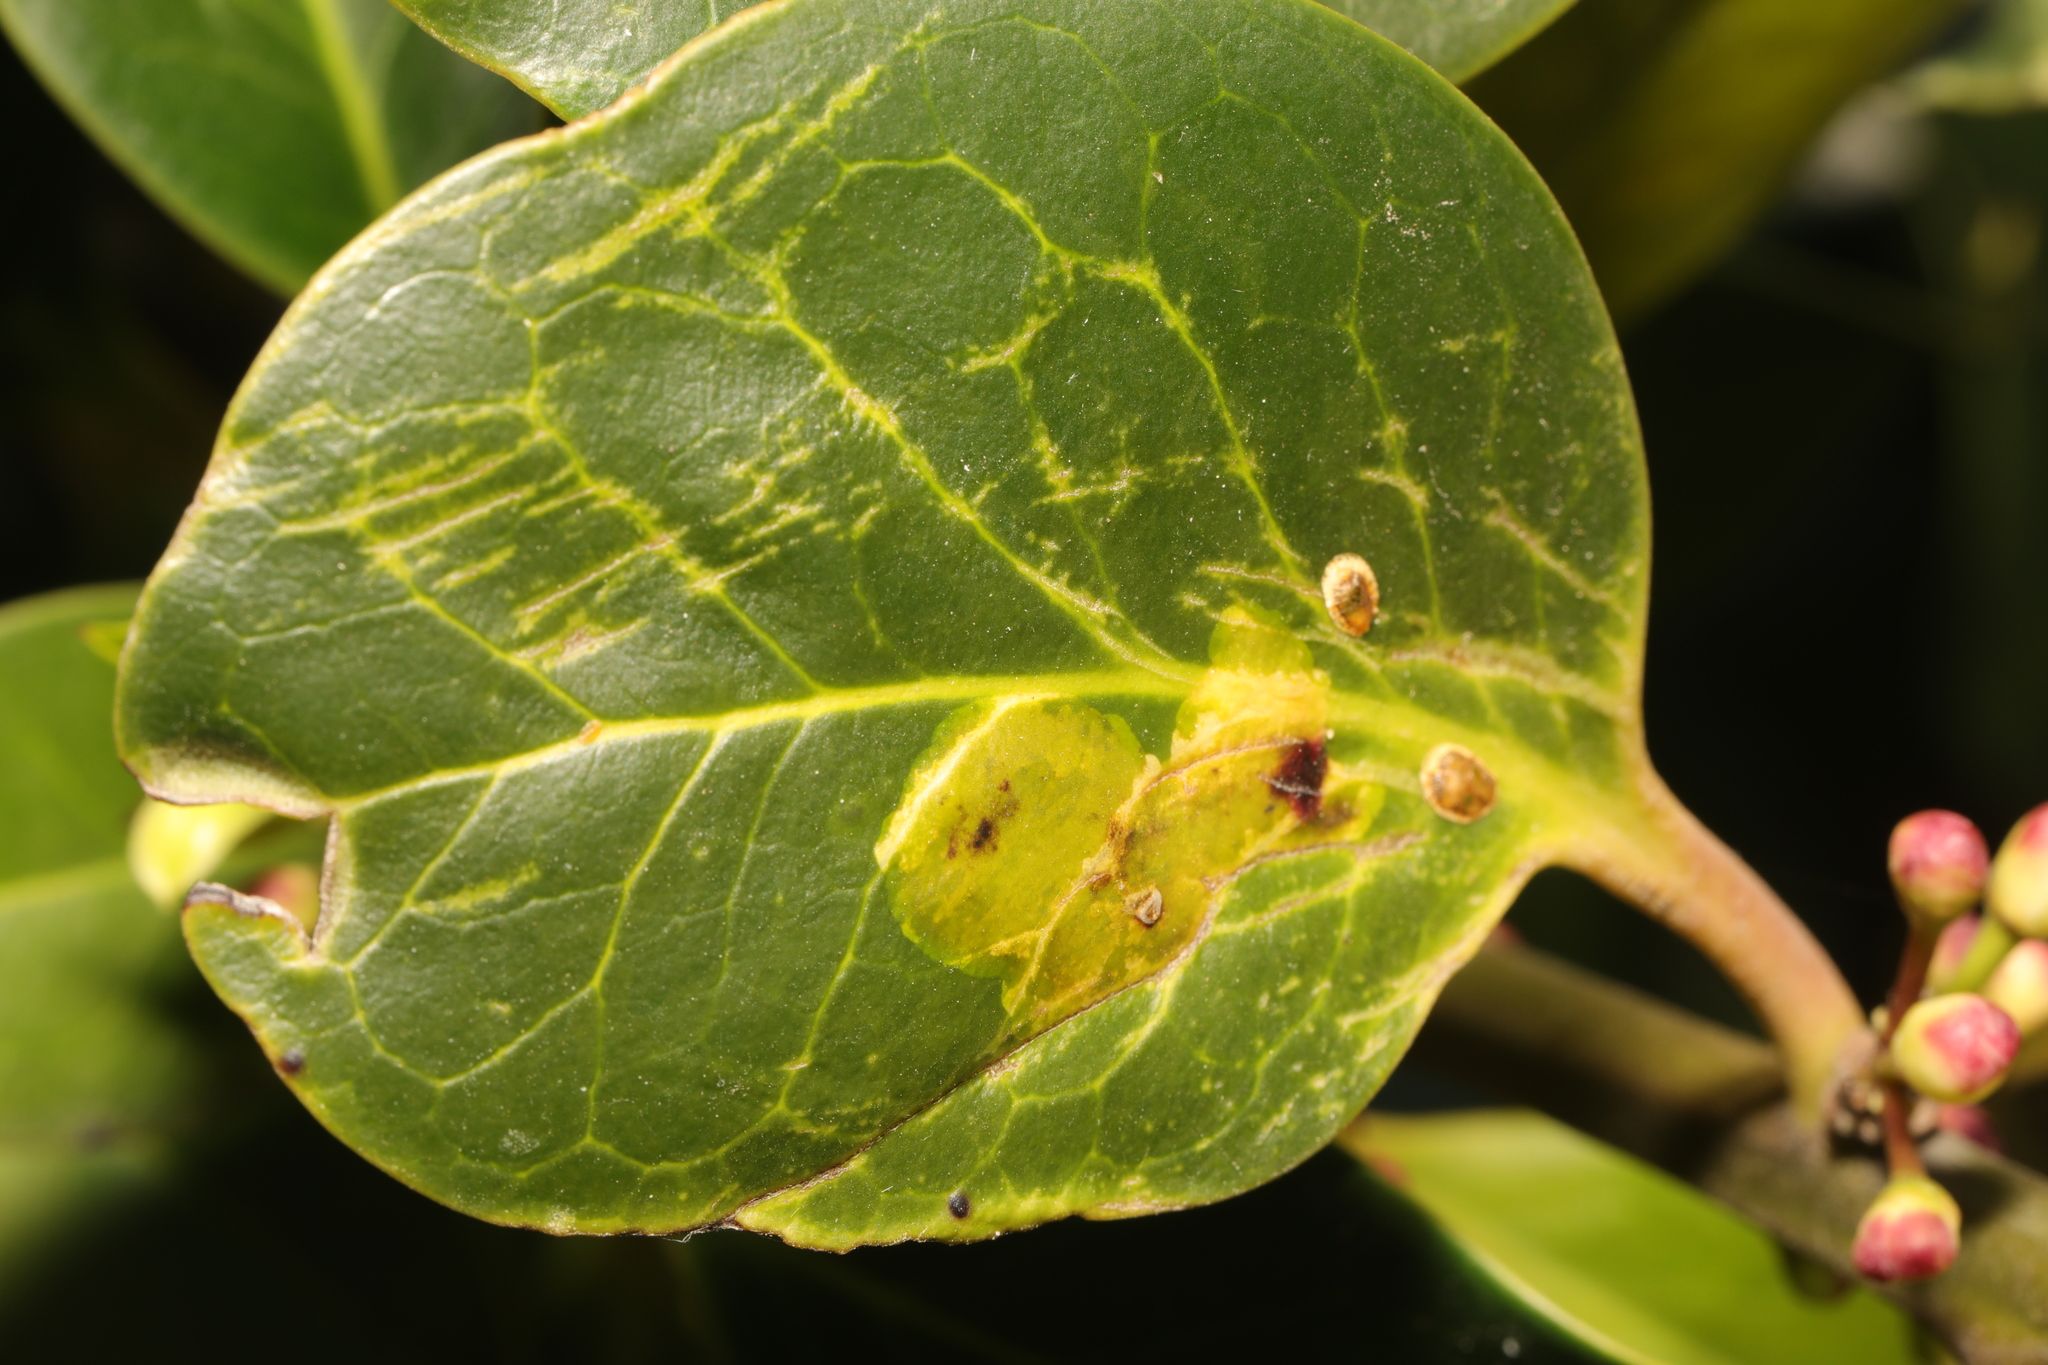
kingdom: Animalia
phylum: Arthropoda
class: Insecta
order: Diptera
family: Agromyzidae
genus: Phytomyza
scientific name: Phytomyza ilicis
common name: Holly leafminer
